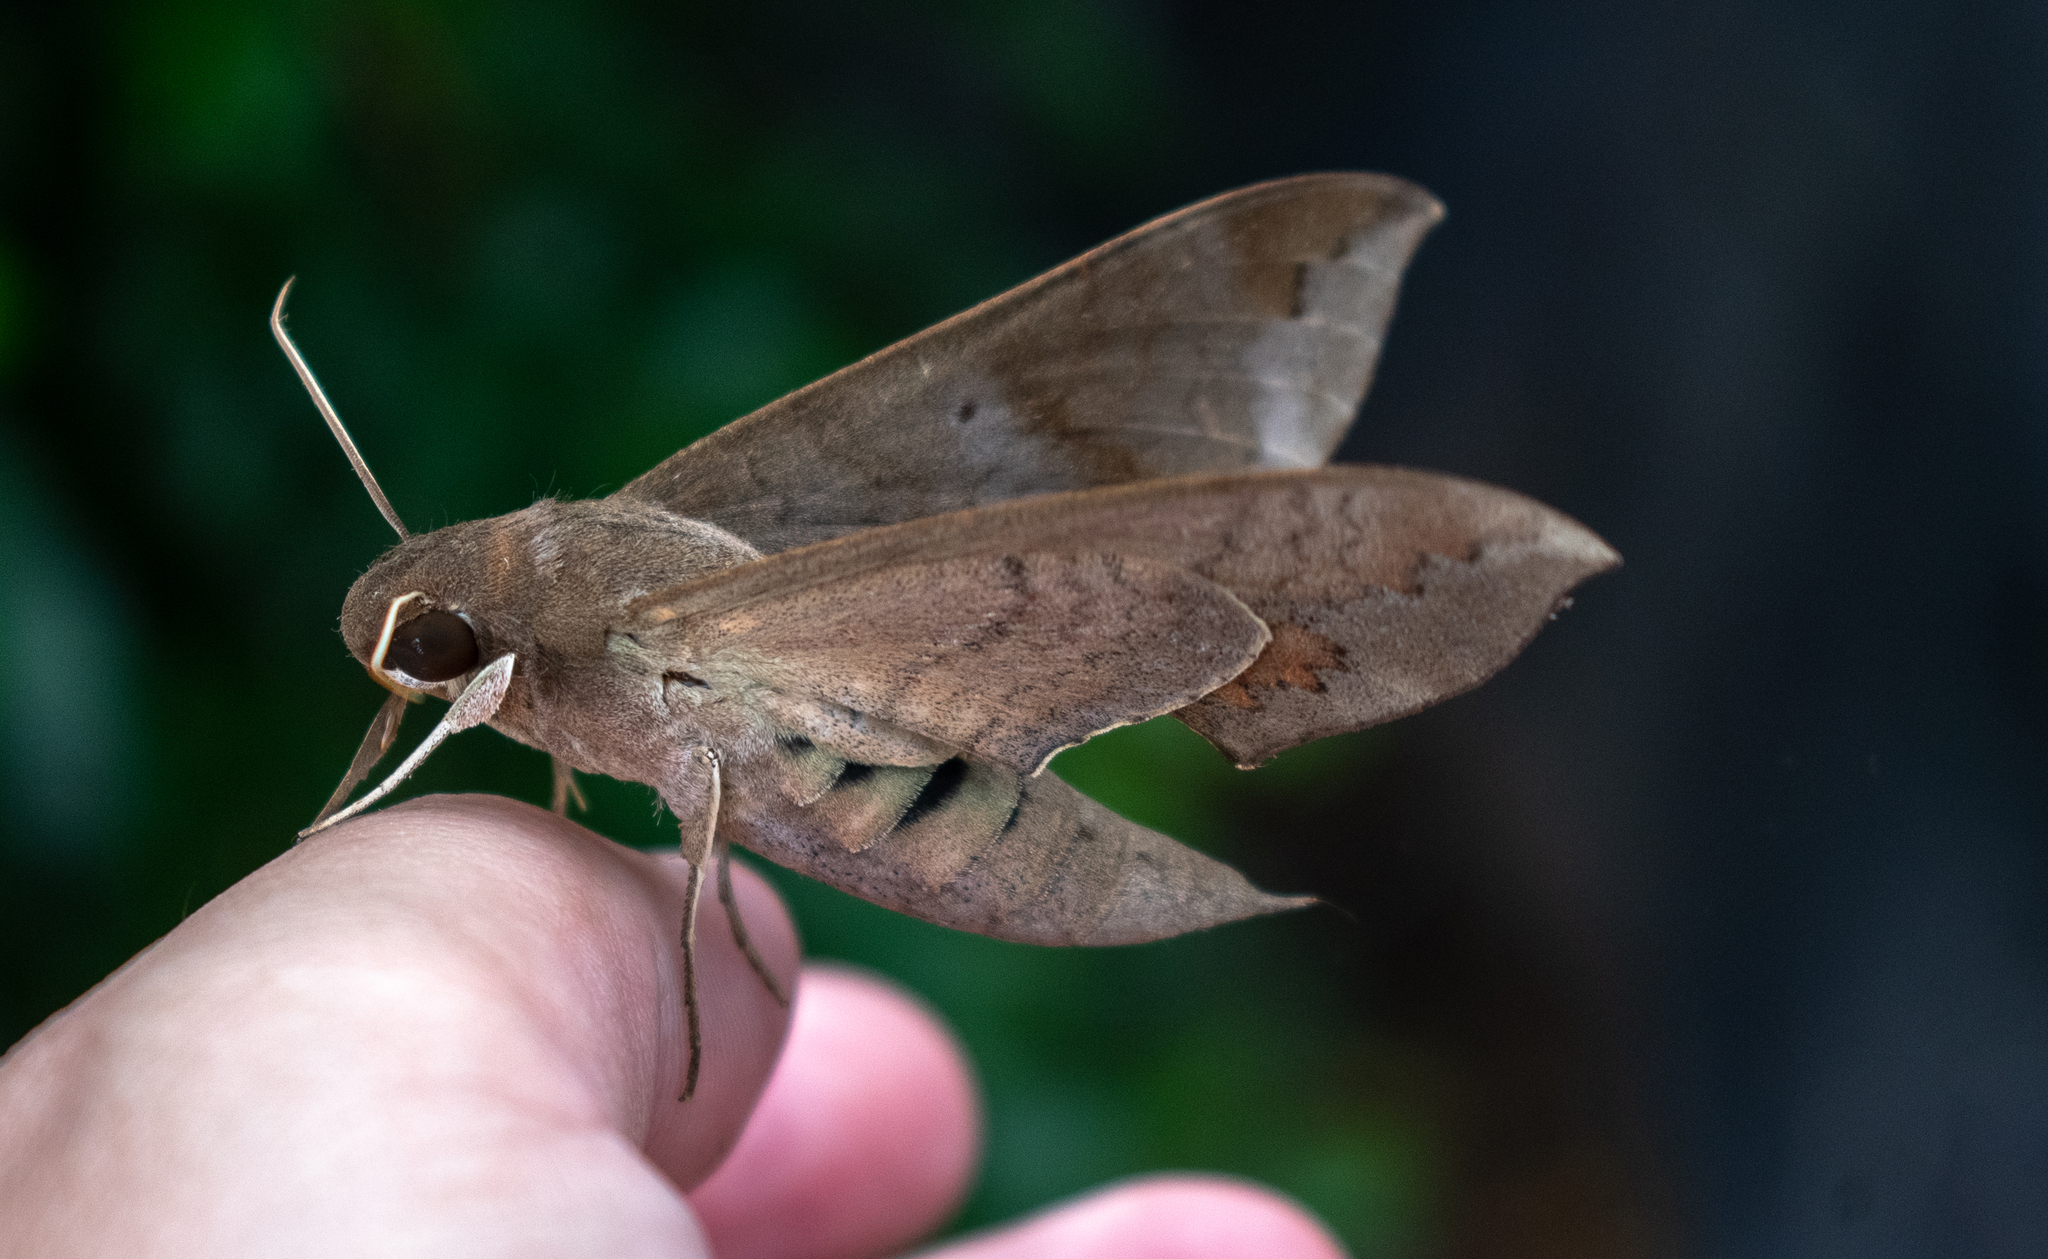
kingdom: Animalia
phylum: Arthropoda
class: Insecta
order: Lepidoptera
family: Sphingidae
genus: Pachylioides
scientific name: Pachylioides resumens
